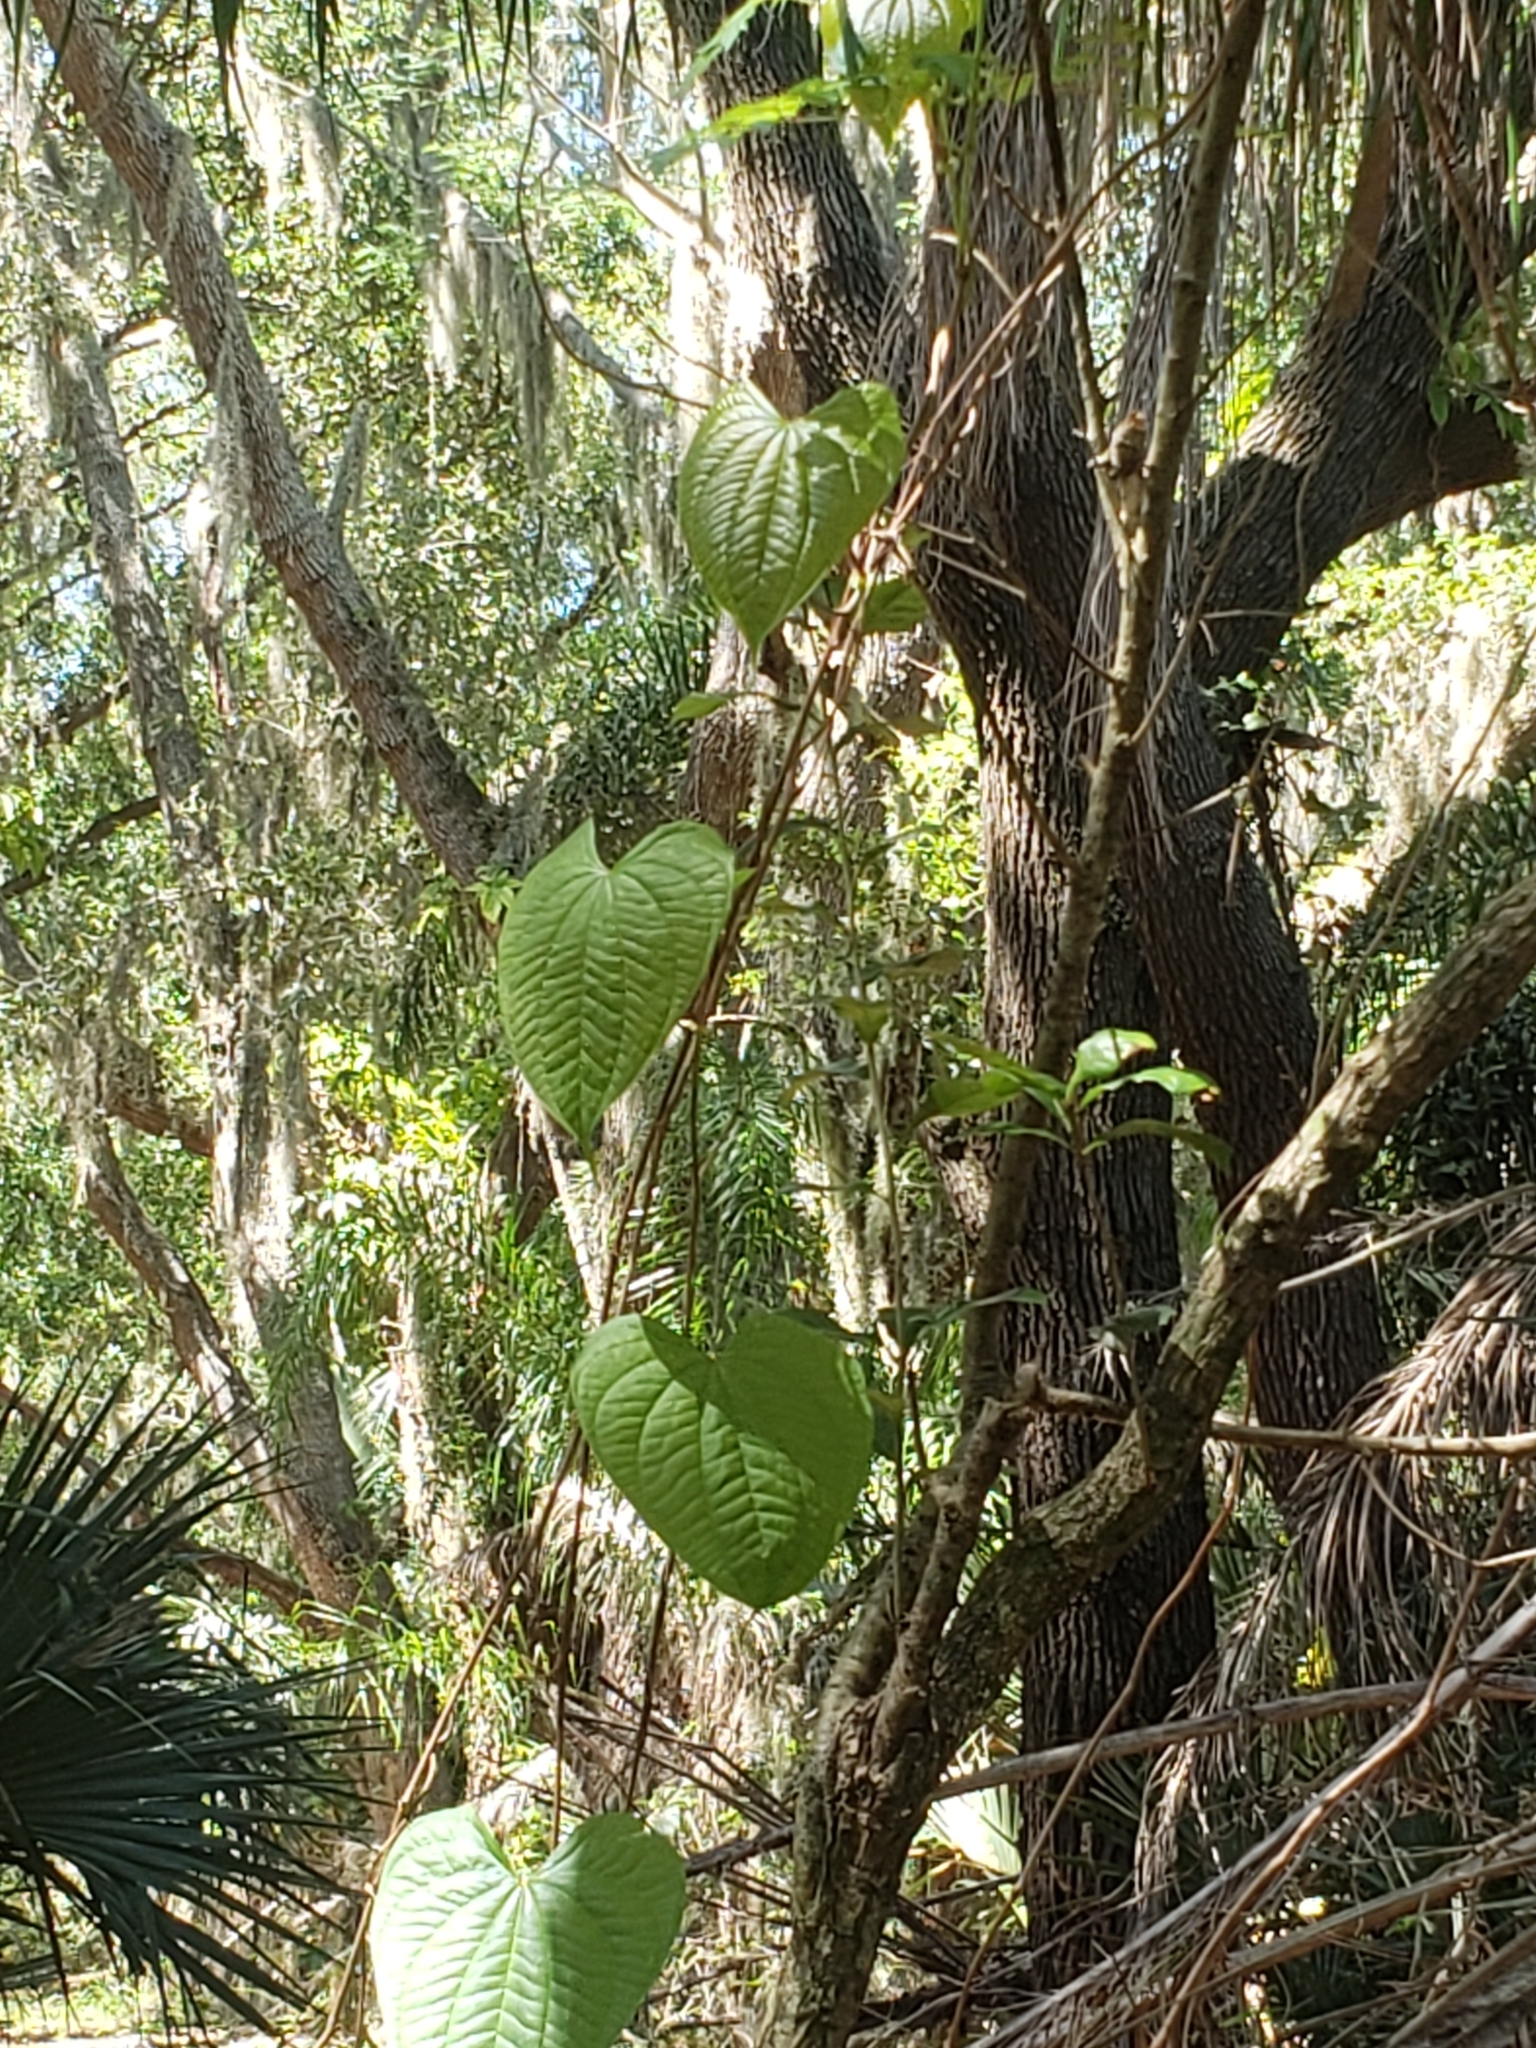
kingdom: Plantae
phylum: Tracheophyta
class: Liliopsida
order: Dioscoreales
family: Dioscoreaceae
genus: Dioscorea
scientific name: Dioscorea bulbifera
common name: Air yam
